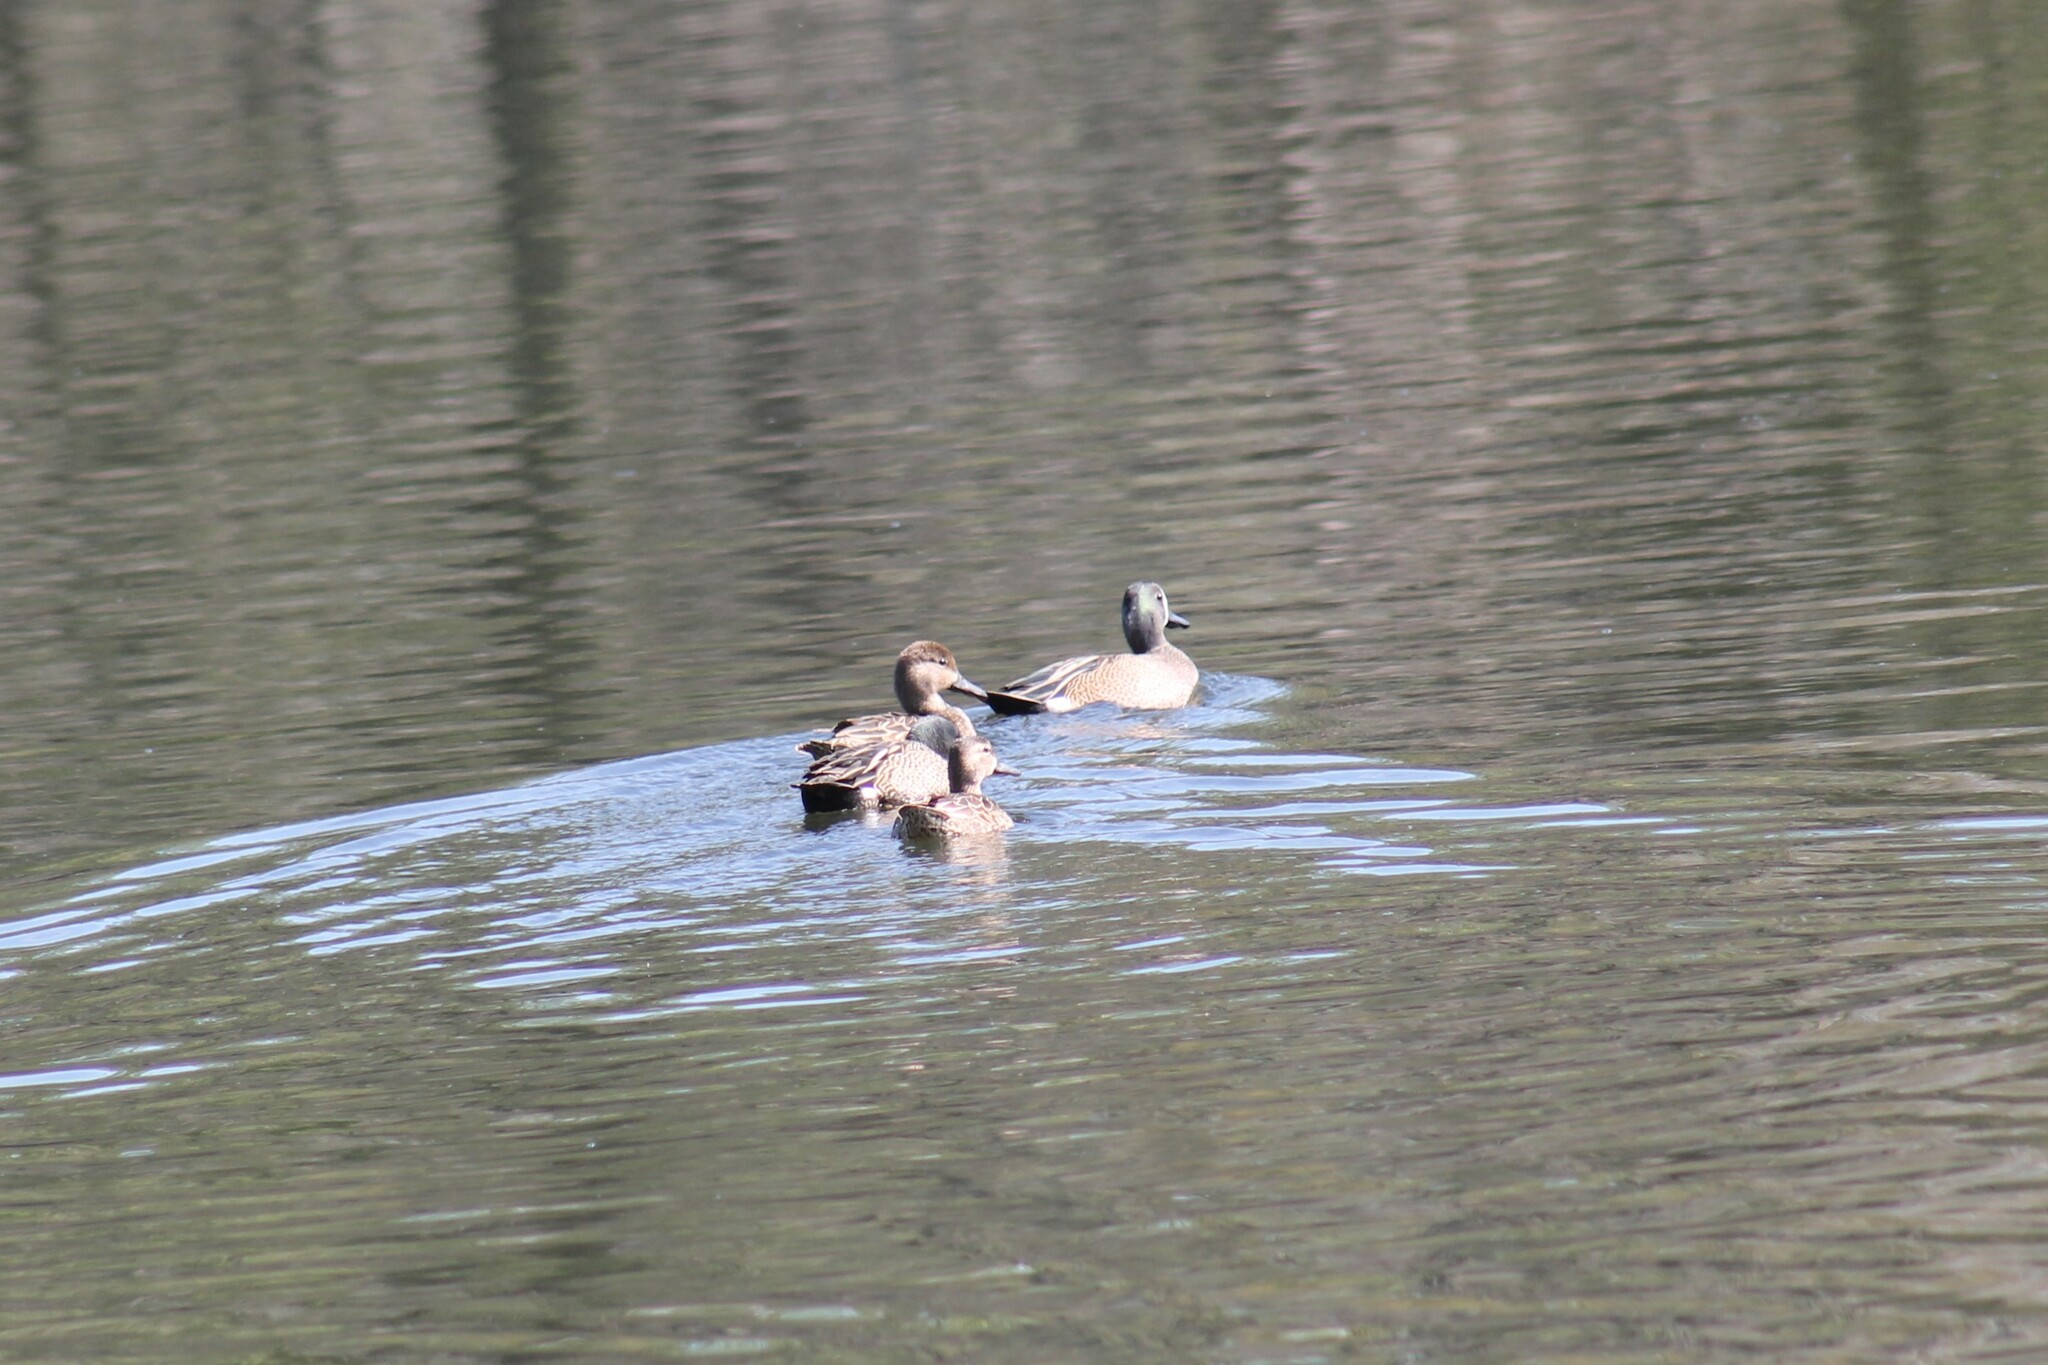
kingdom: Animalia
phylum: Chordata
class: Aves
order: Anseriformes
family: Anatidae
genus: Spatula
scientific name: Spatula discors
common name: Blue-winged teal
